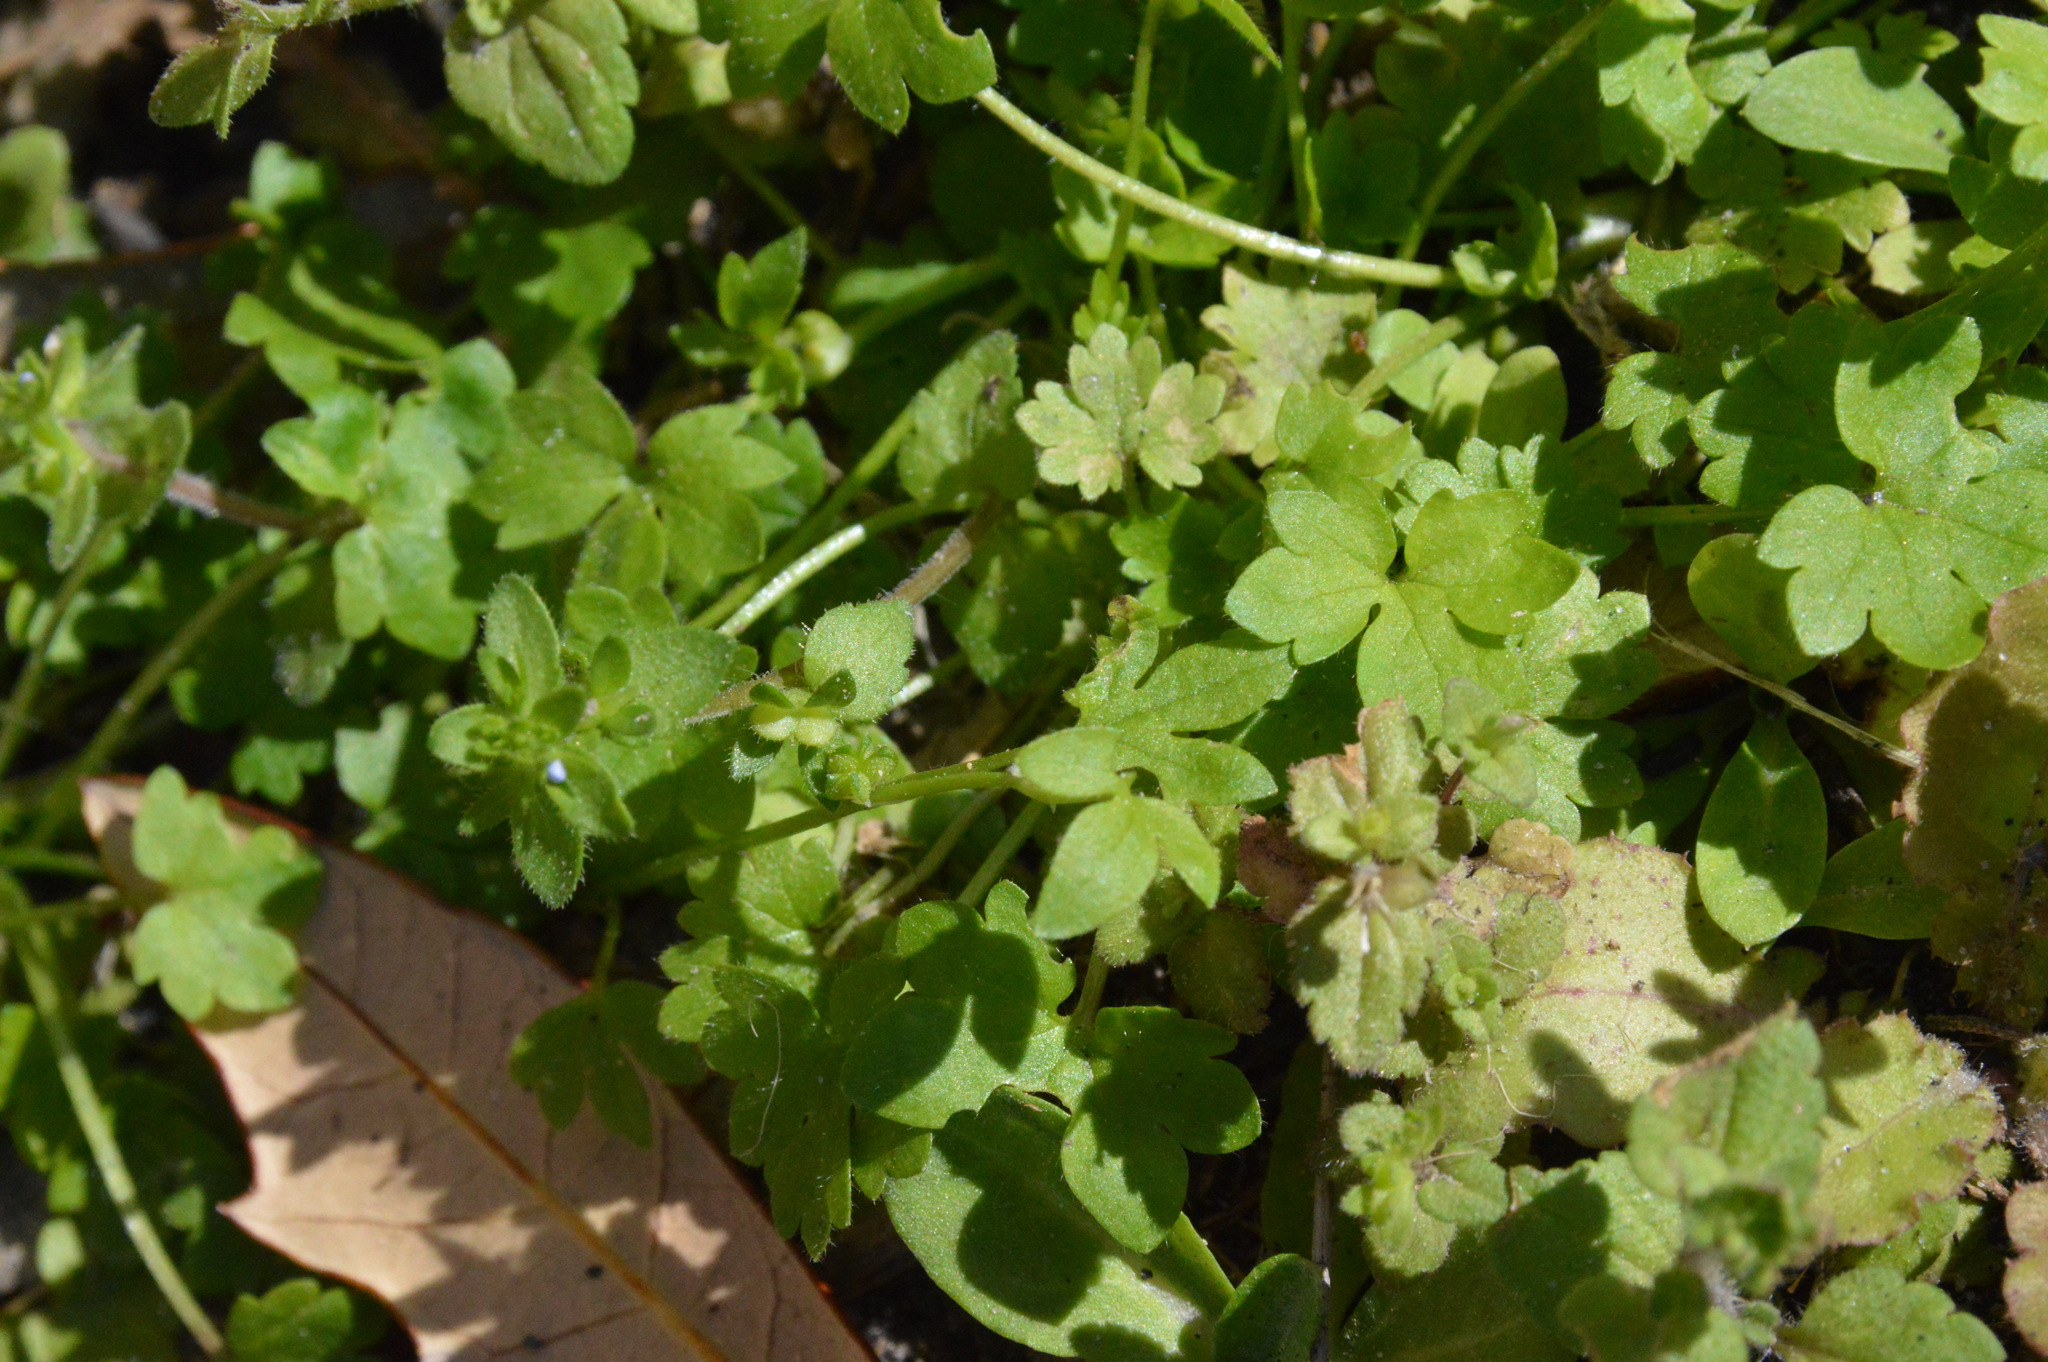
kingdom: Plantae
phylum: Tracheophyta
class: Magnoliopsida
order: Apiales
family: Apiaceae
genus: Bowlesia
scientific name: Bowlesia incana
